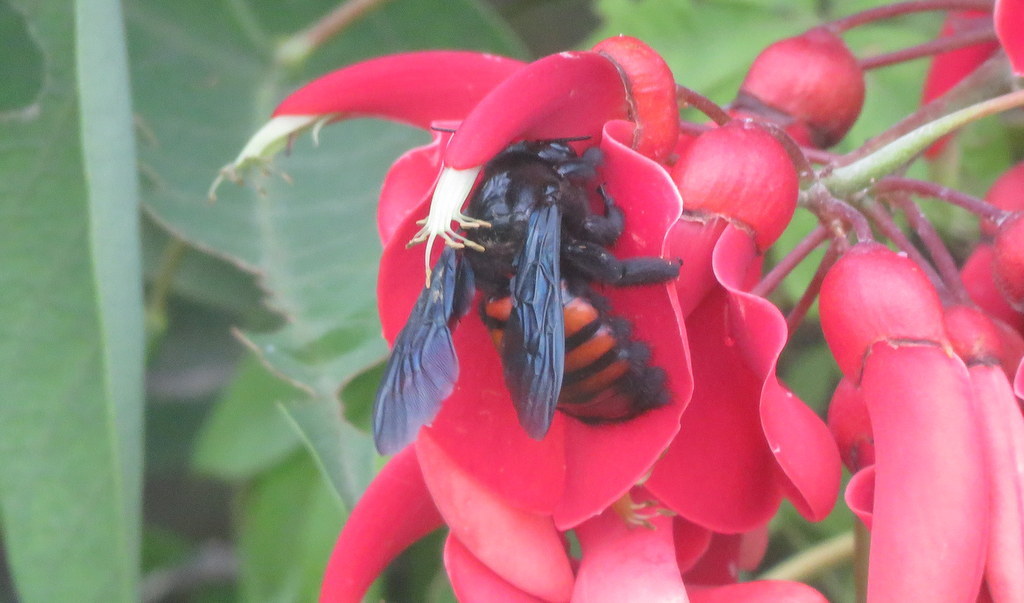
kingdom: Animalia
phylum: Arthropoda
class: Insecta
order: Hymenoptera
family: Apidae
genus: Xylocopa
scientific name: Xylocopa frontalis
